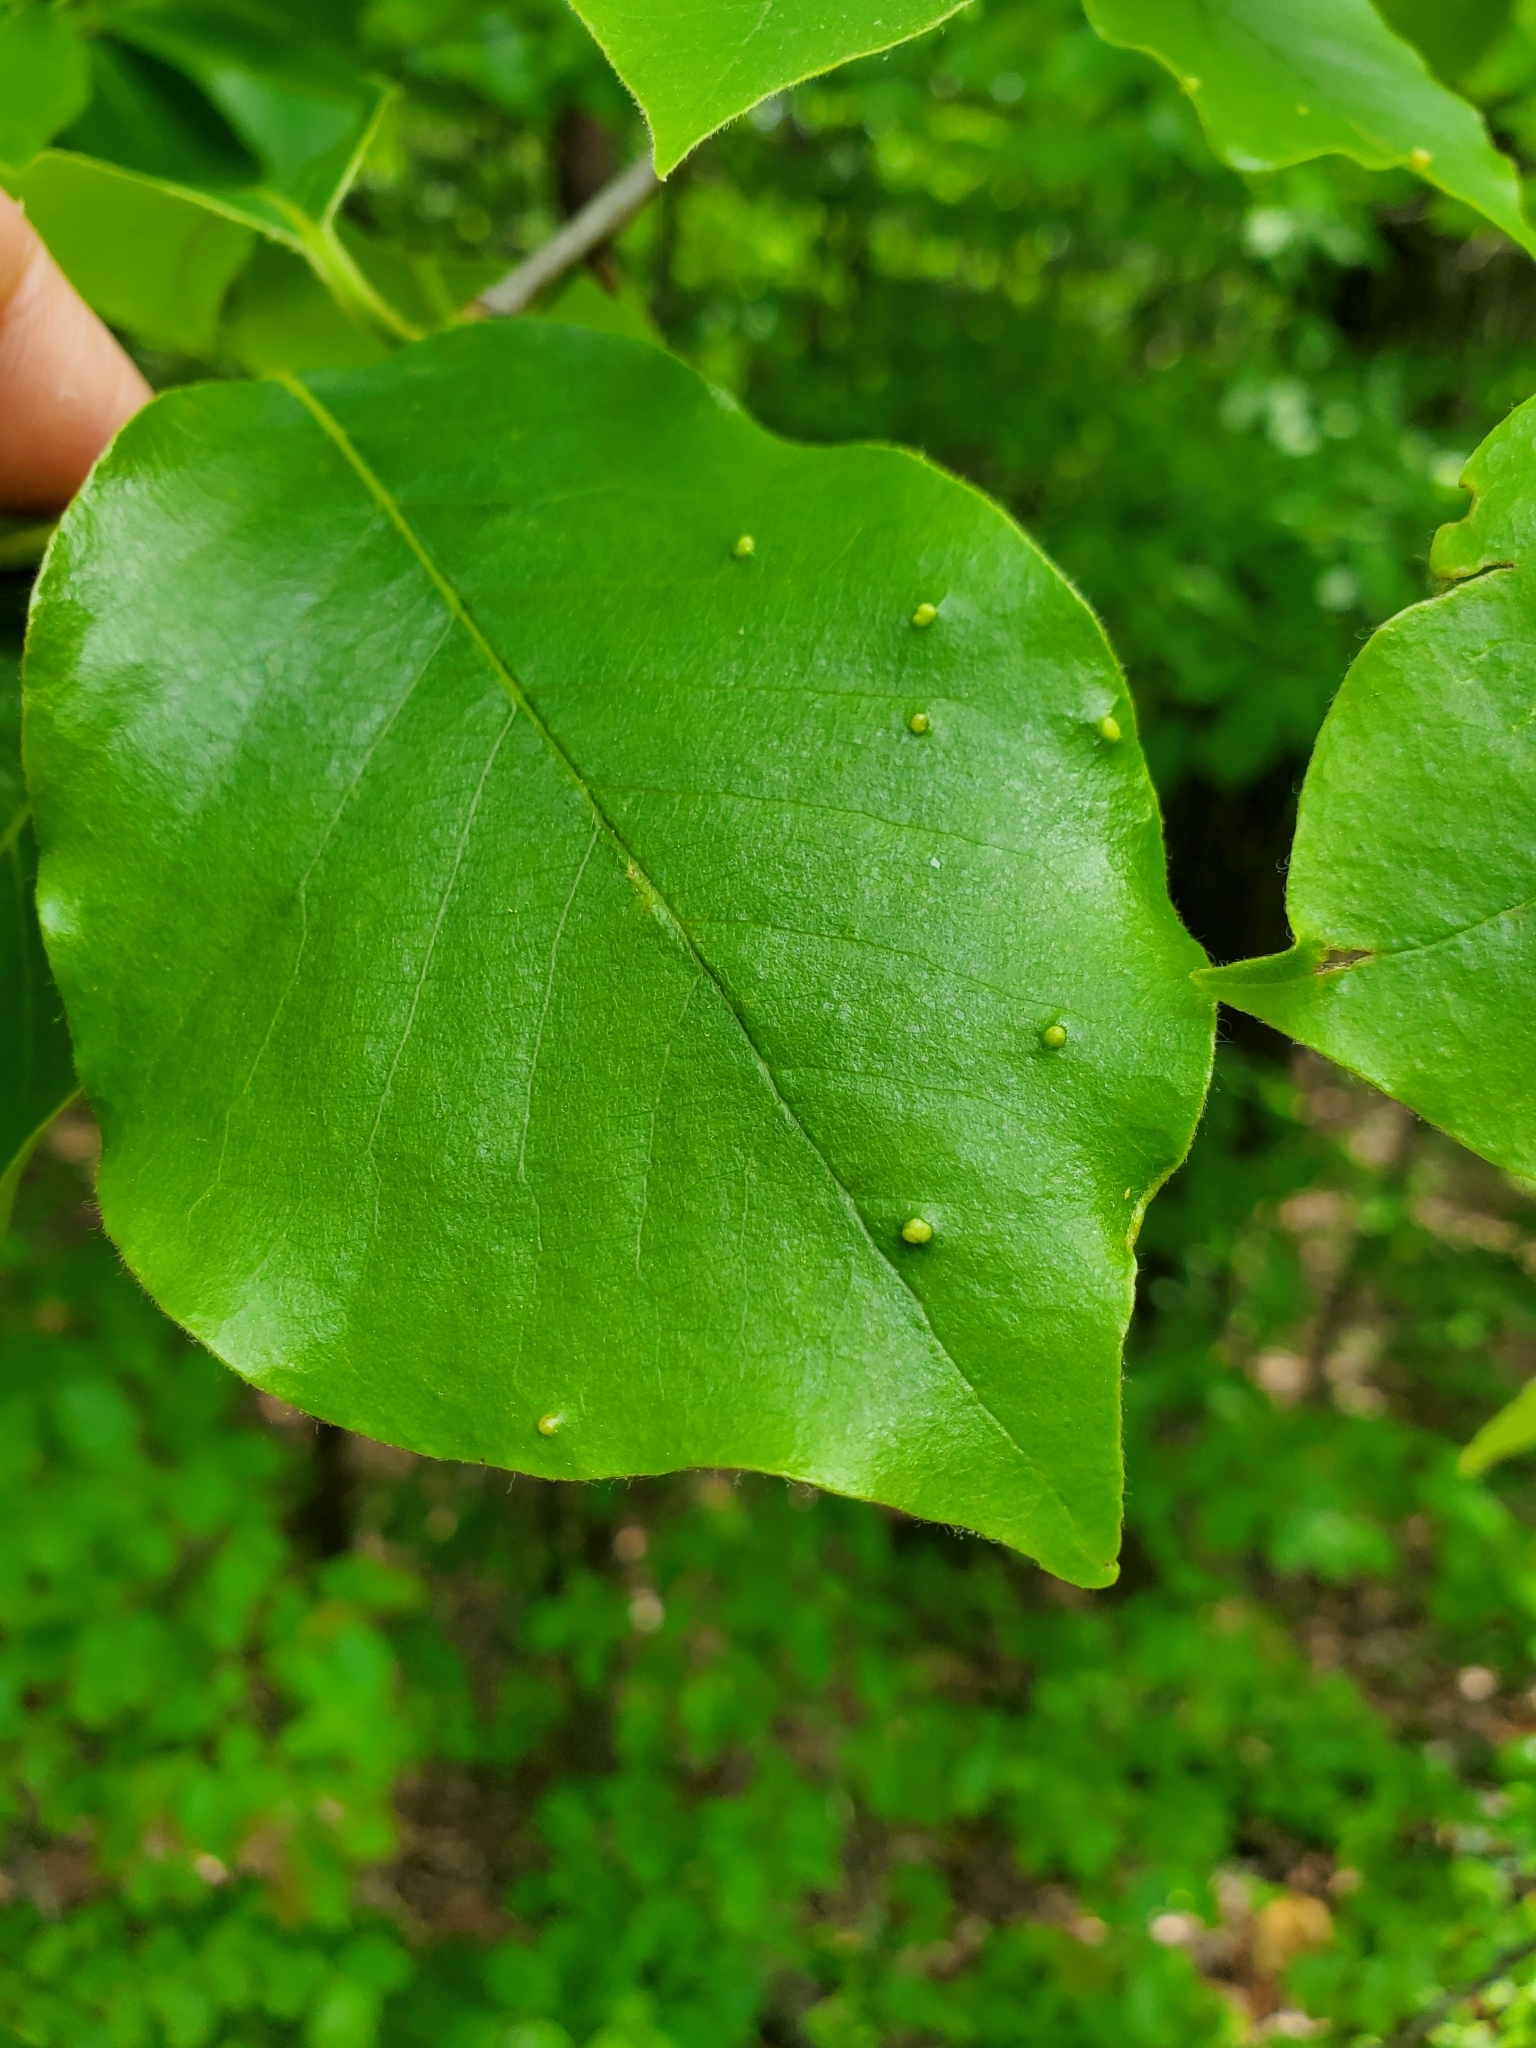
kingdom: Animalia
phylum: Arthropoda
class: Arachnida
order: Trombidiformes
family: Eriophyidae
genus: Aceria
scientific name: Aceria
